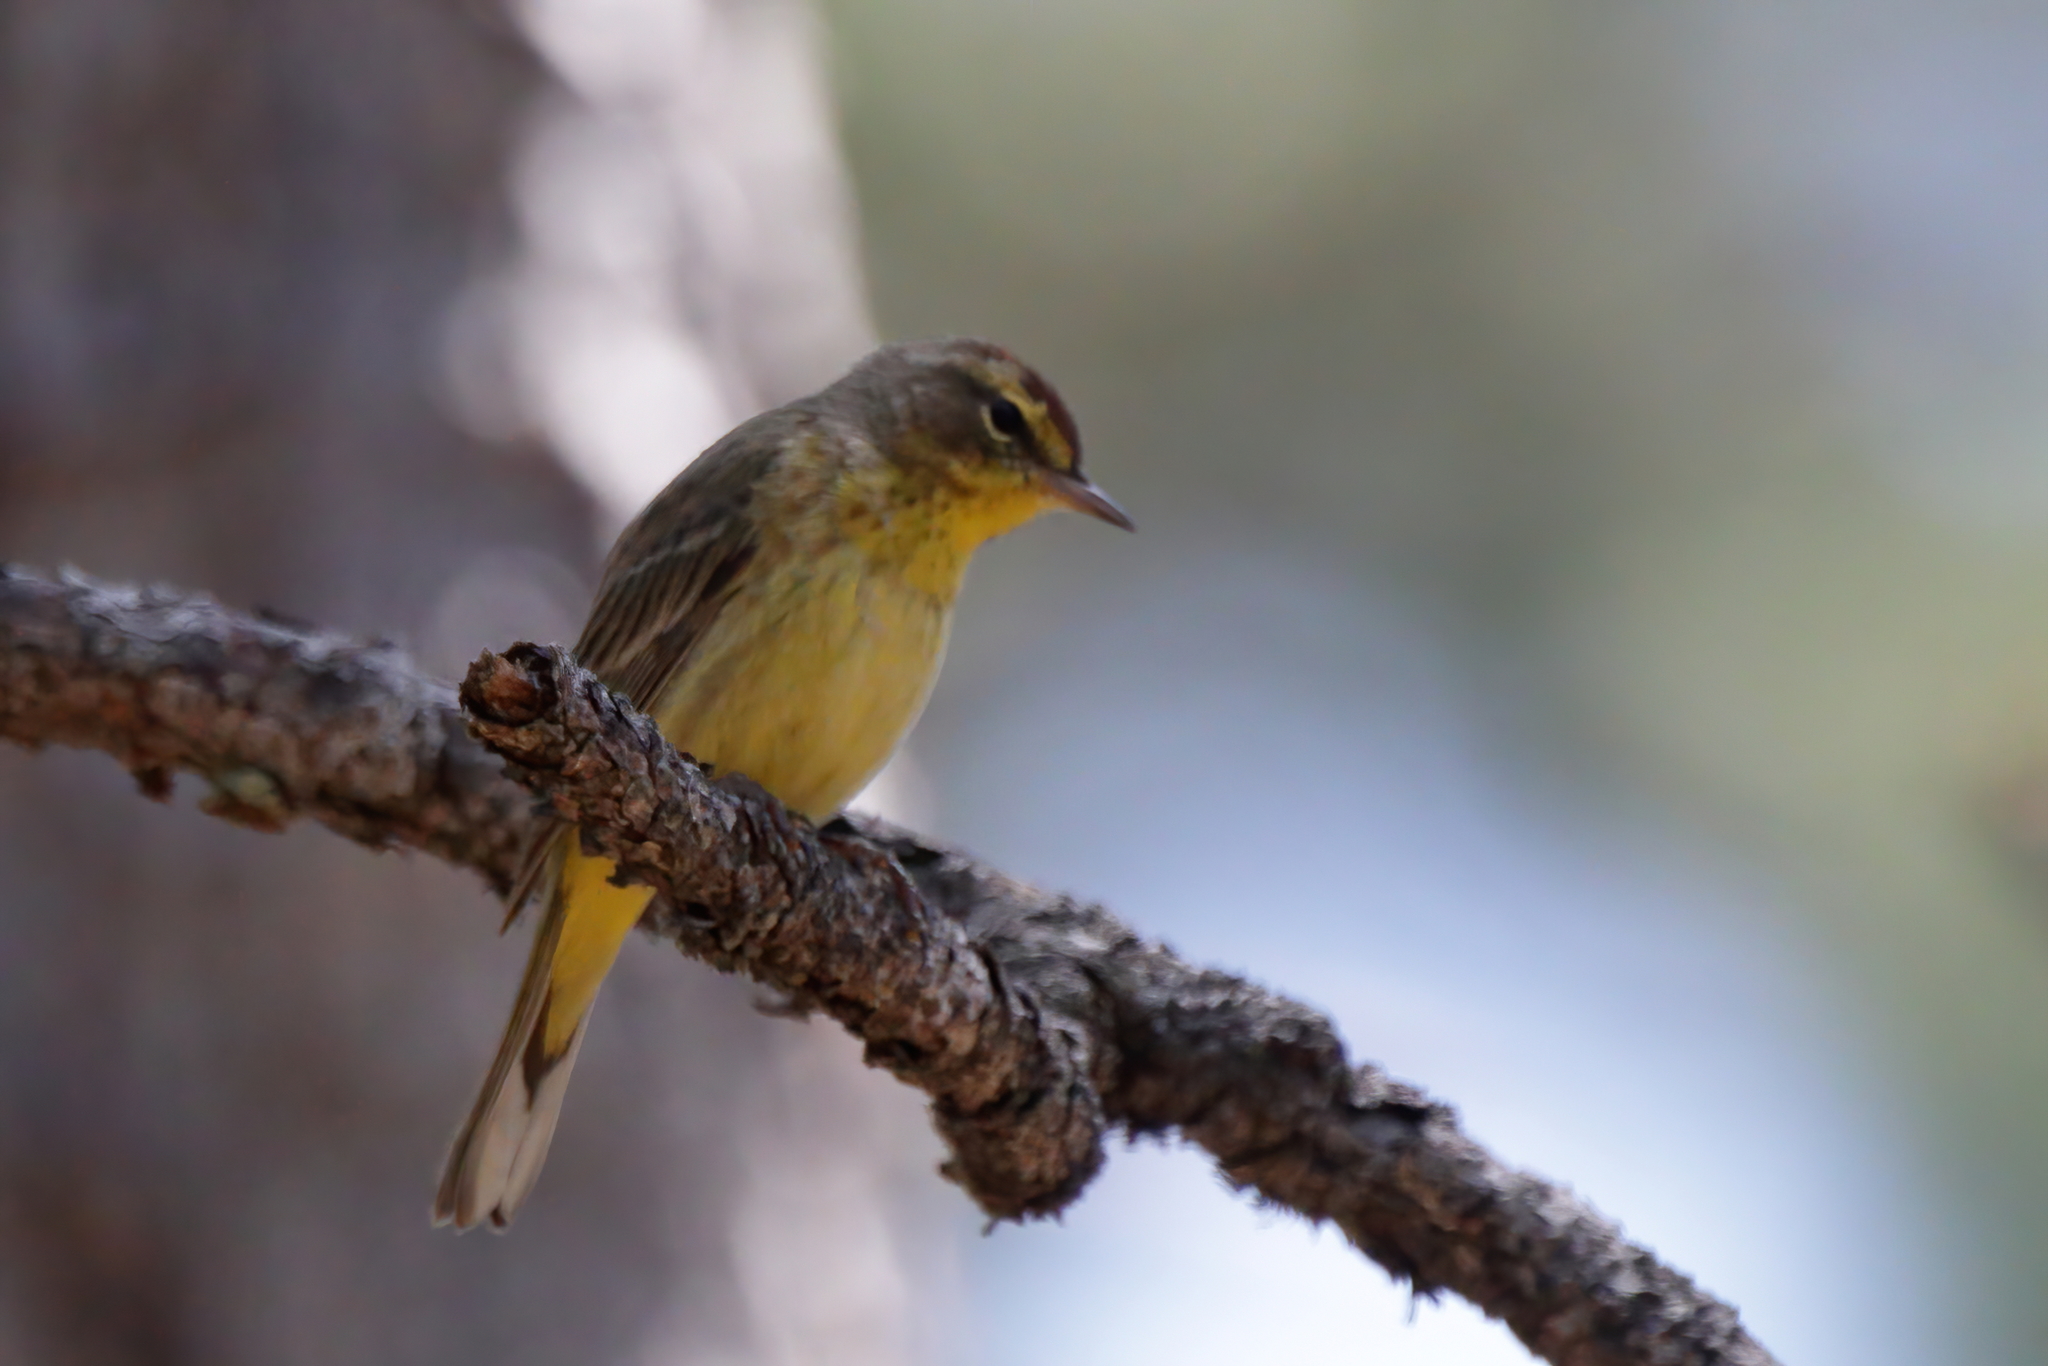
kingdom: Animalia
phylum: Chordata
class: Aves
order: Passeriformes
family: Parulidae
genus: Setophaga
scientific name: Setophaga palmarum
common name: Palm warbler
